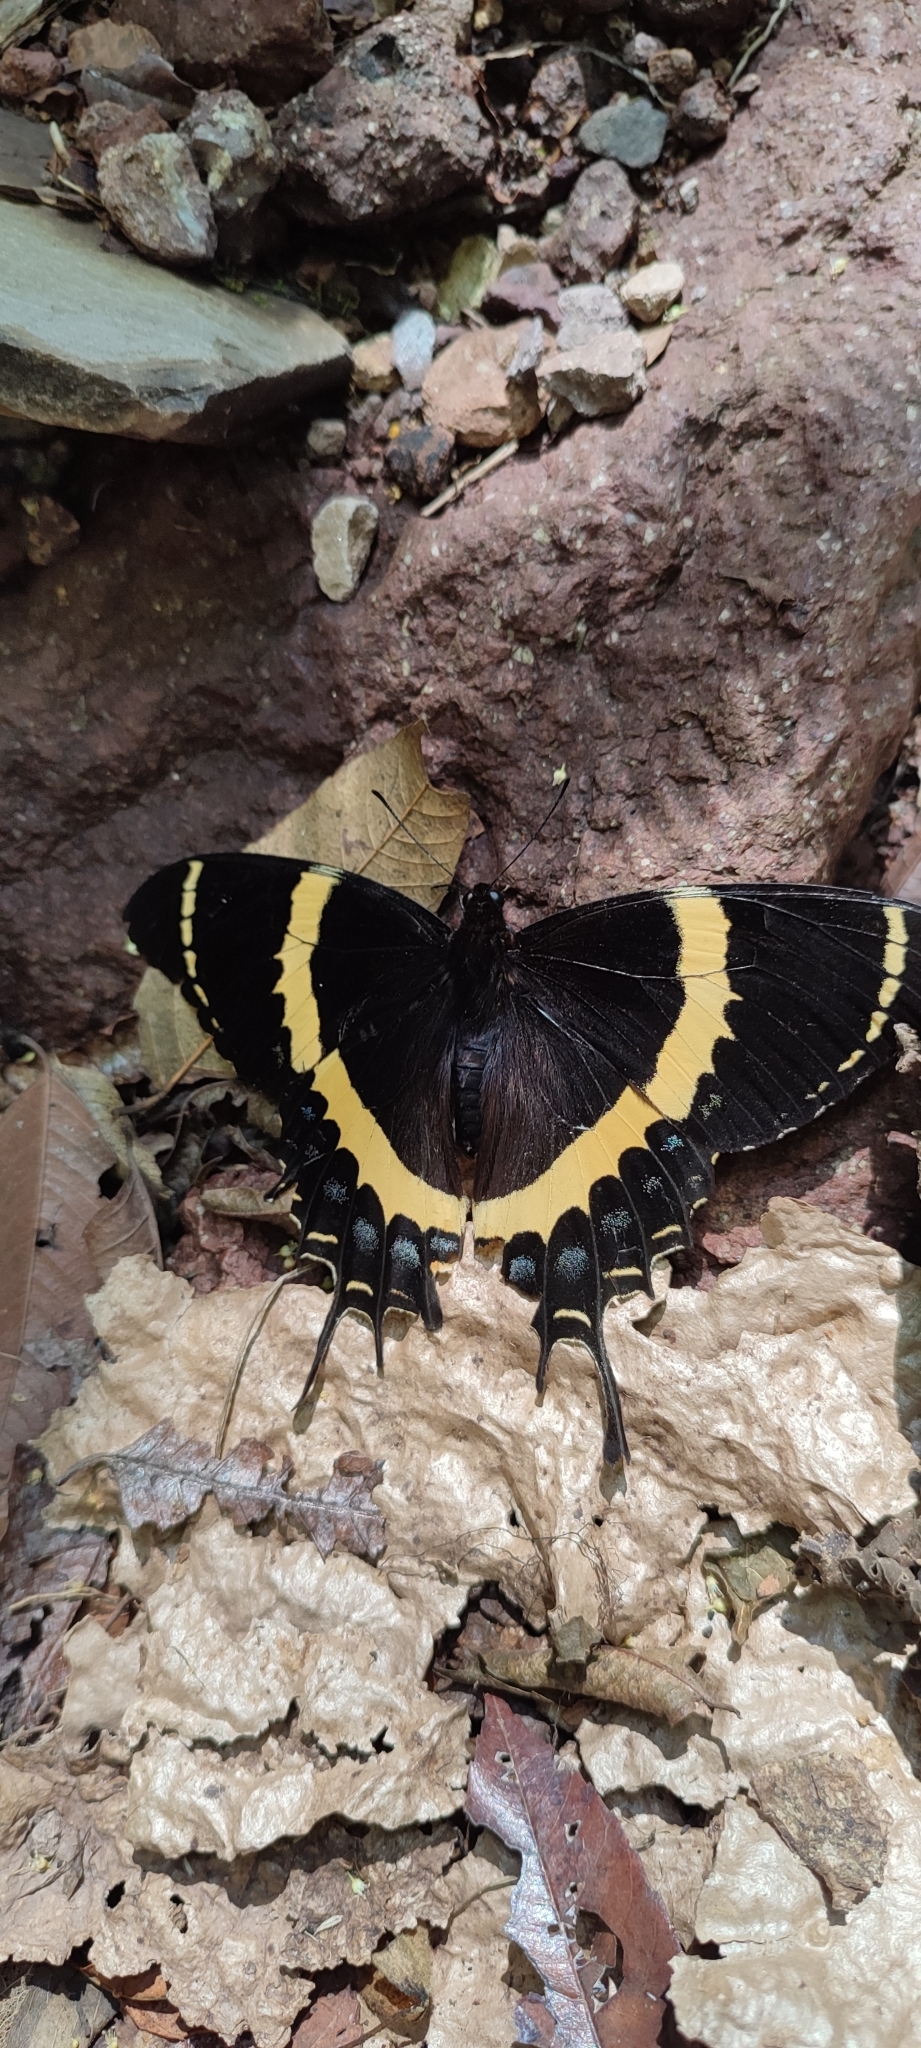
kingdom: Animalia
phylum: Arthropoda
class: Insecta
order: Lepidoptera
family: Papilionidae
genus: Papilio
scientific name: Papilio garamas
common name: Magnificent swallowtail
